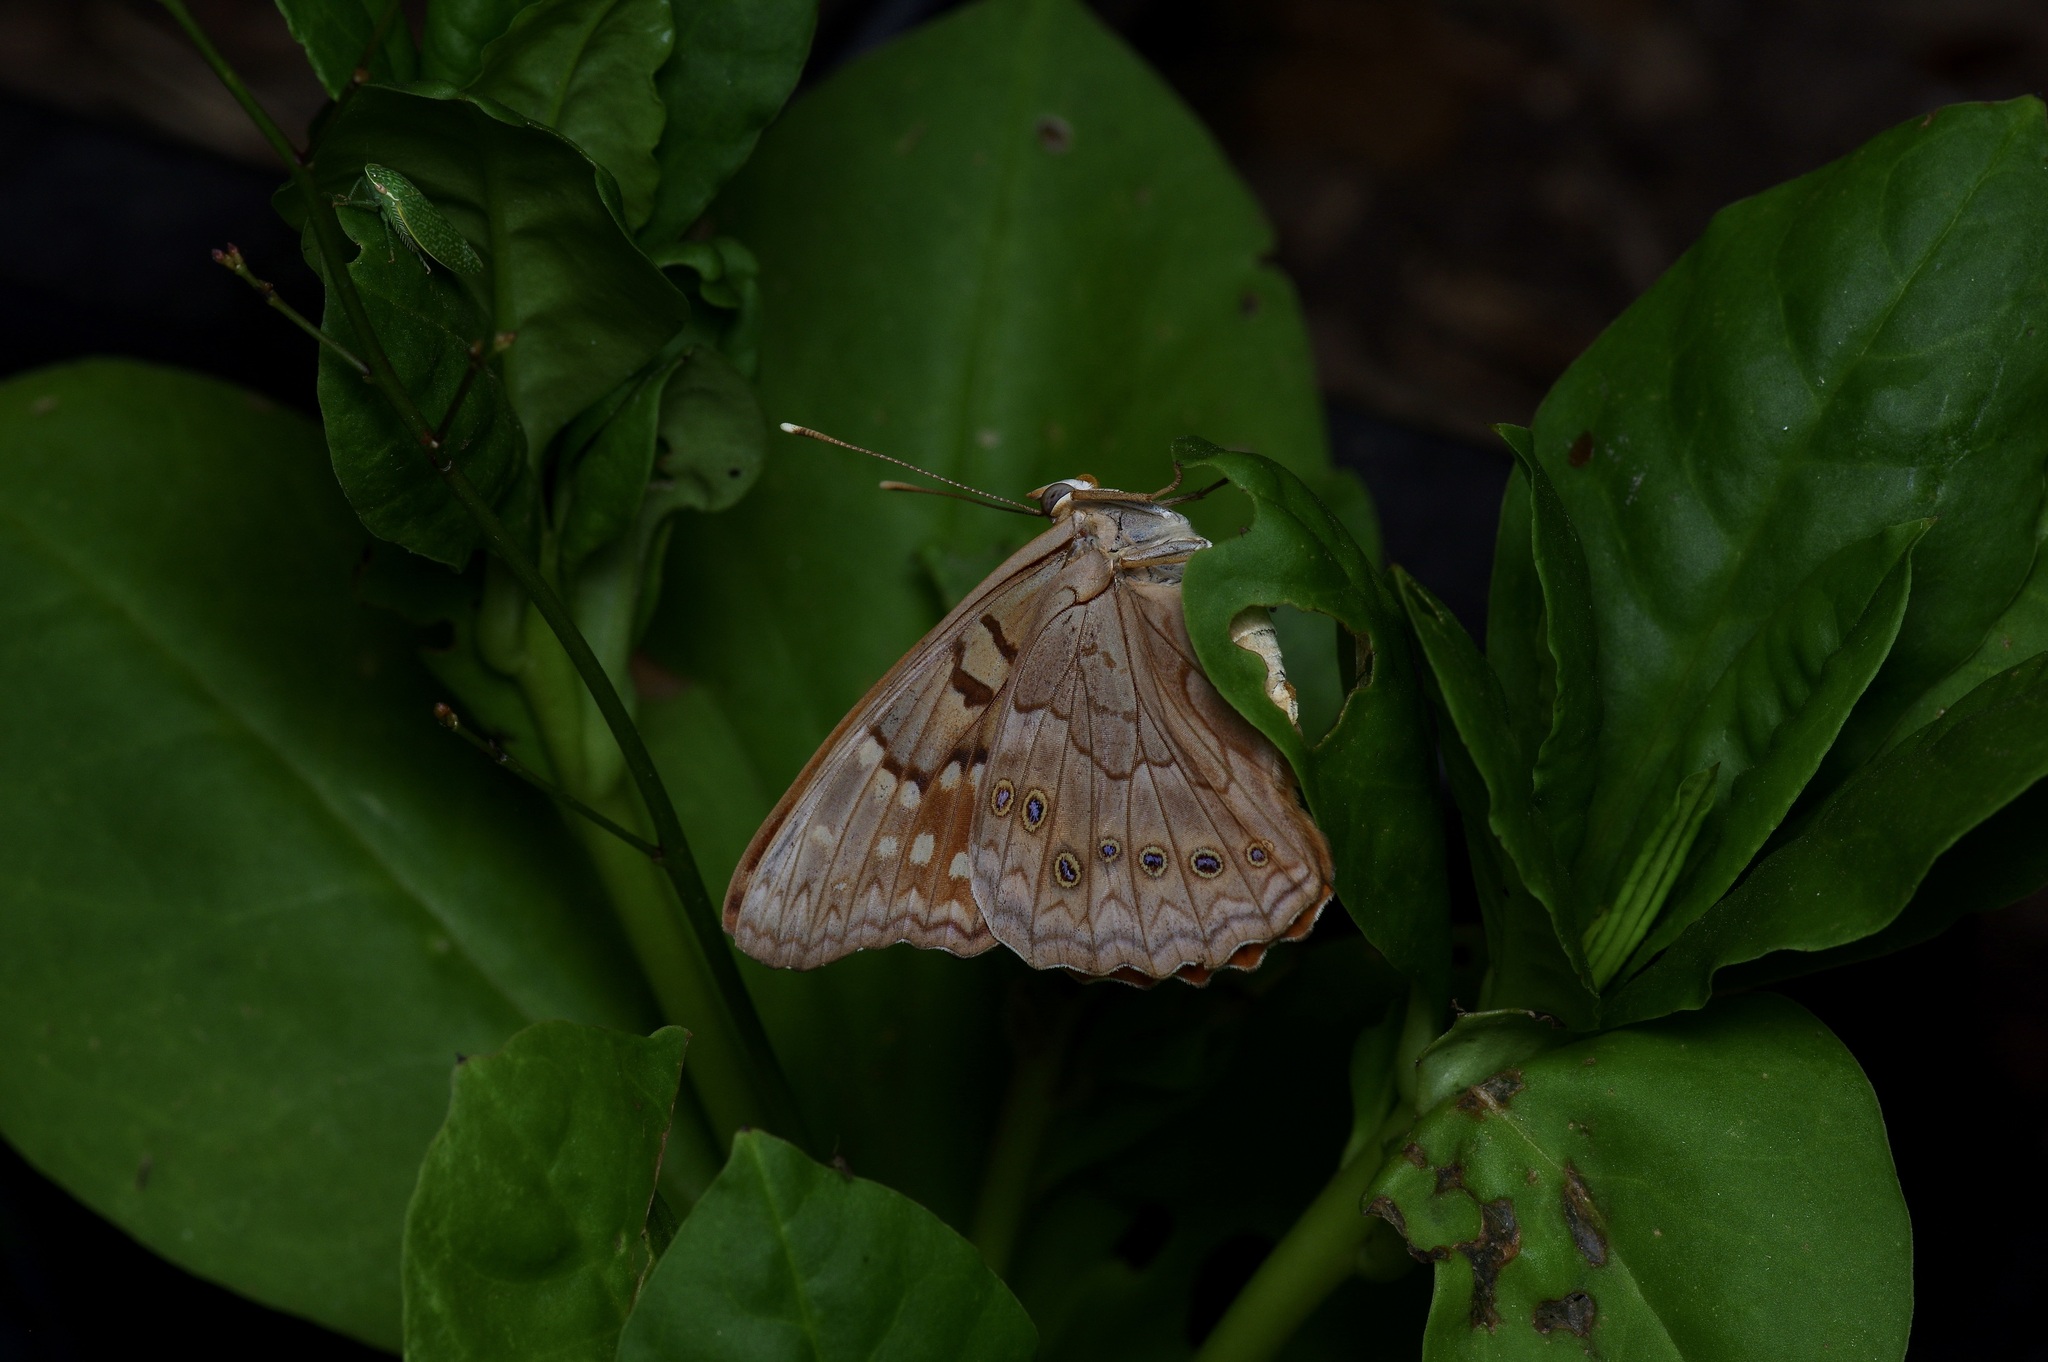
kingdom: Animalia
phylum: Arthropoda
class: Insecta
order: Lepidoptera
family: Nymphalidae
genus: Asterocampa
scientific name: Asterocampa clyton
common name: Tawny emperor
